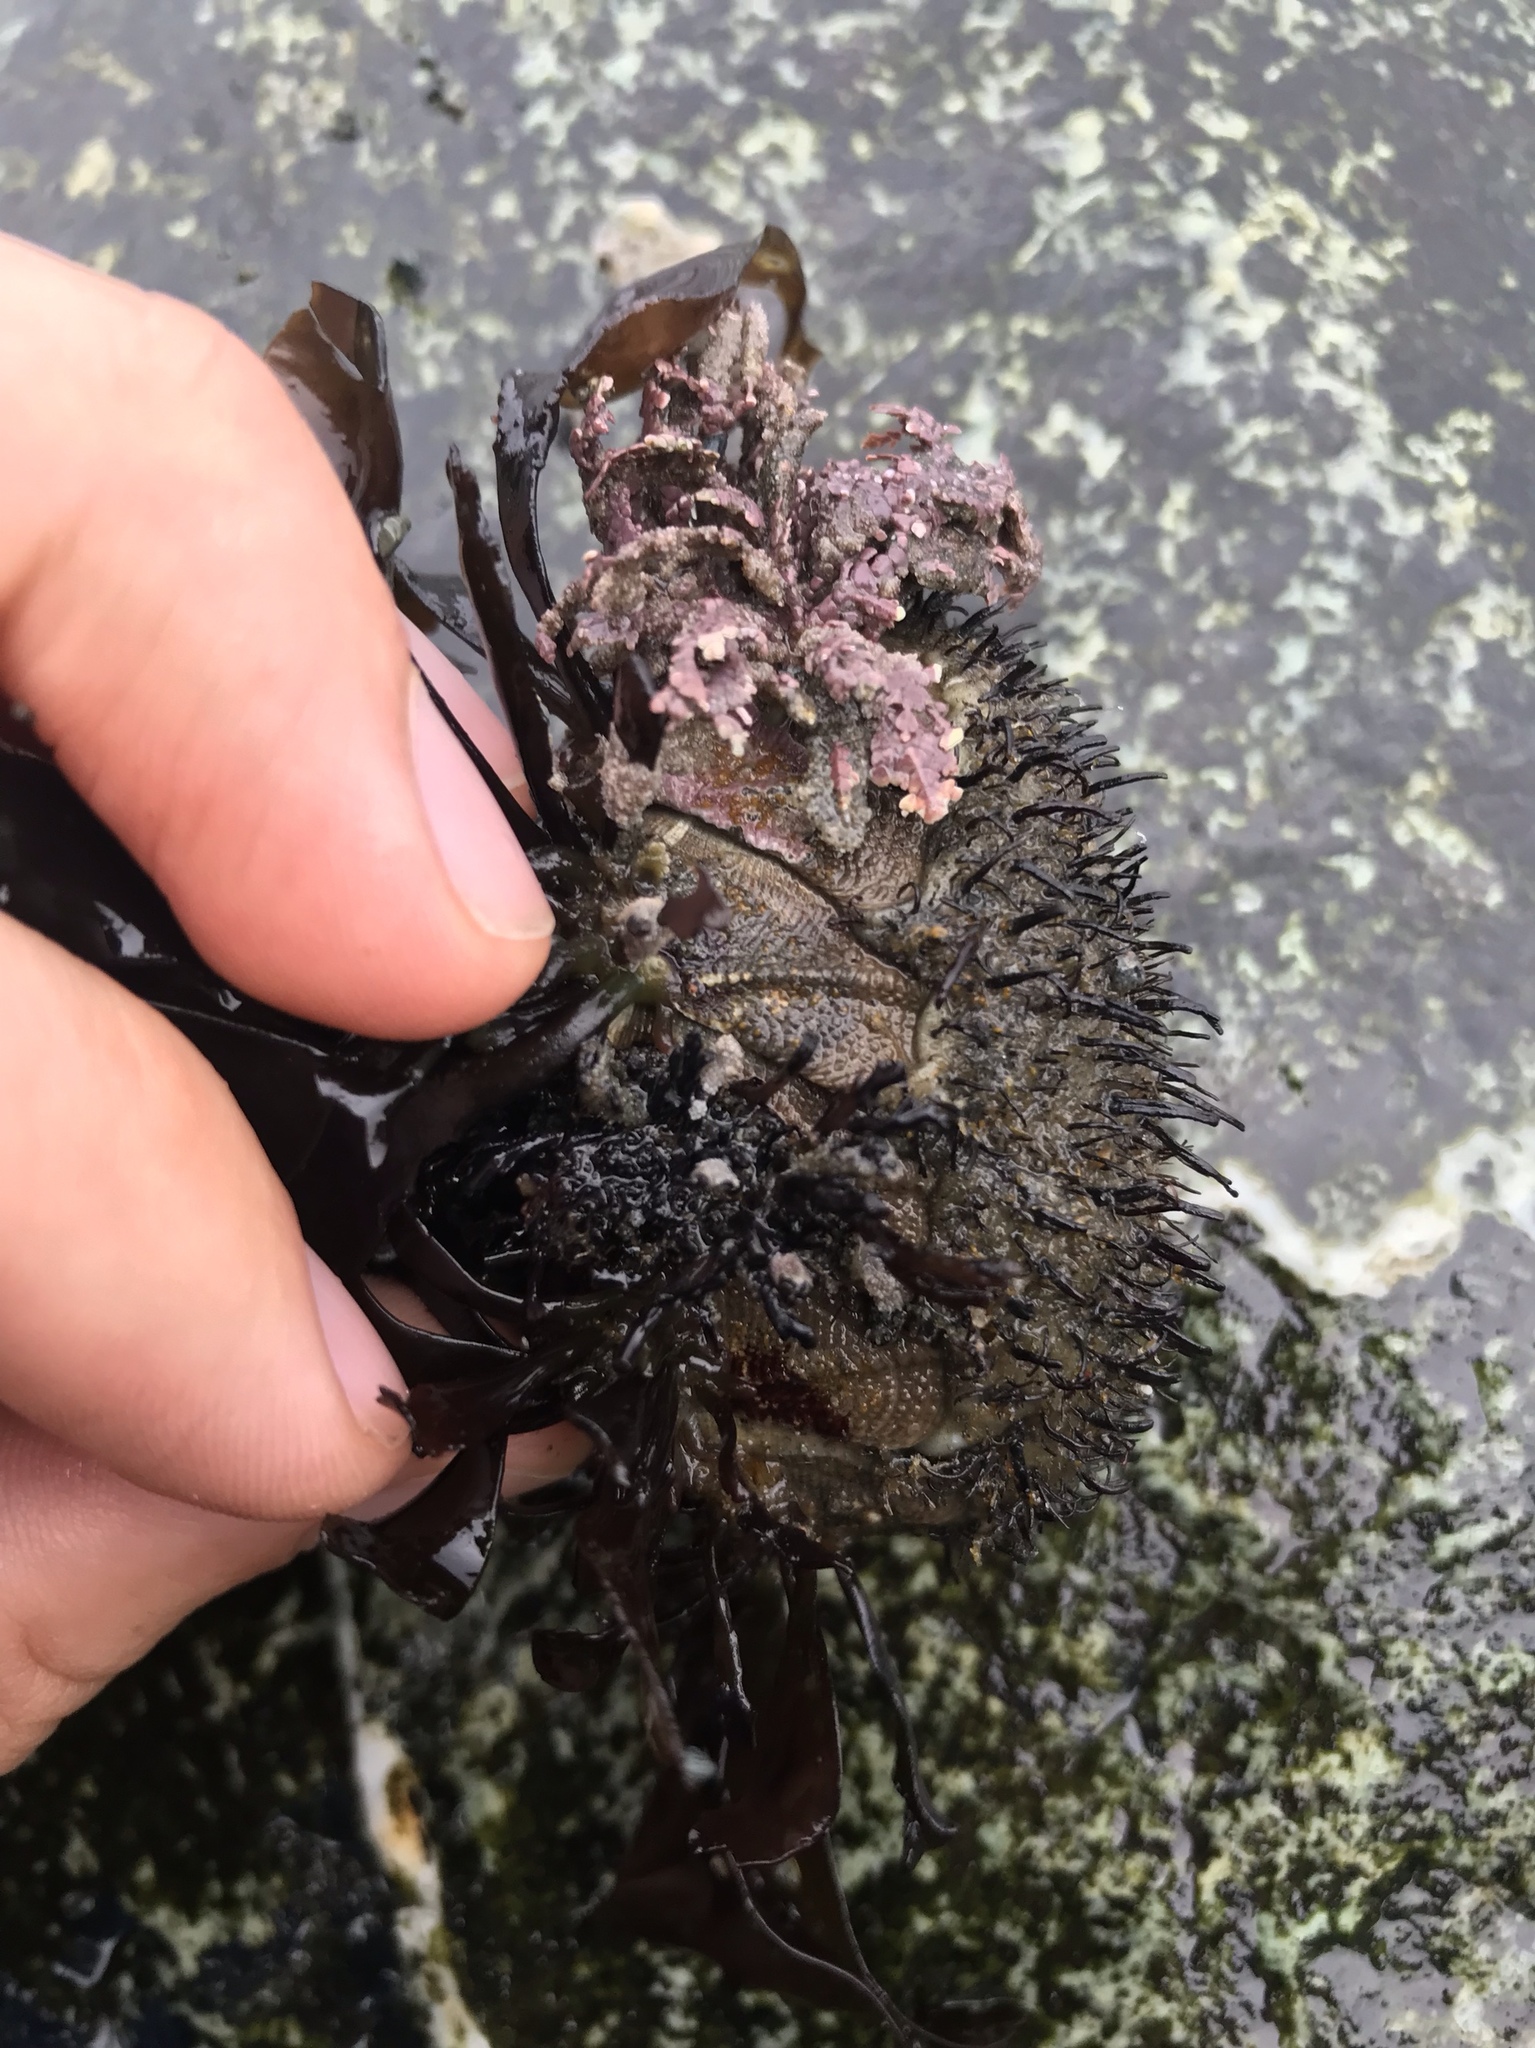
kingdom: Animalia
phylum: Mollusca
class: Polyplacophora
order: Chitonida
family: Mopaliidae
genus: Mopalia
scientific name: Mopalia muscosa
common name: Mossy chiton
